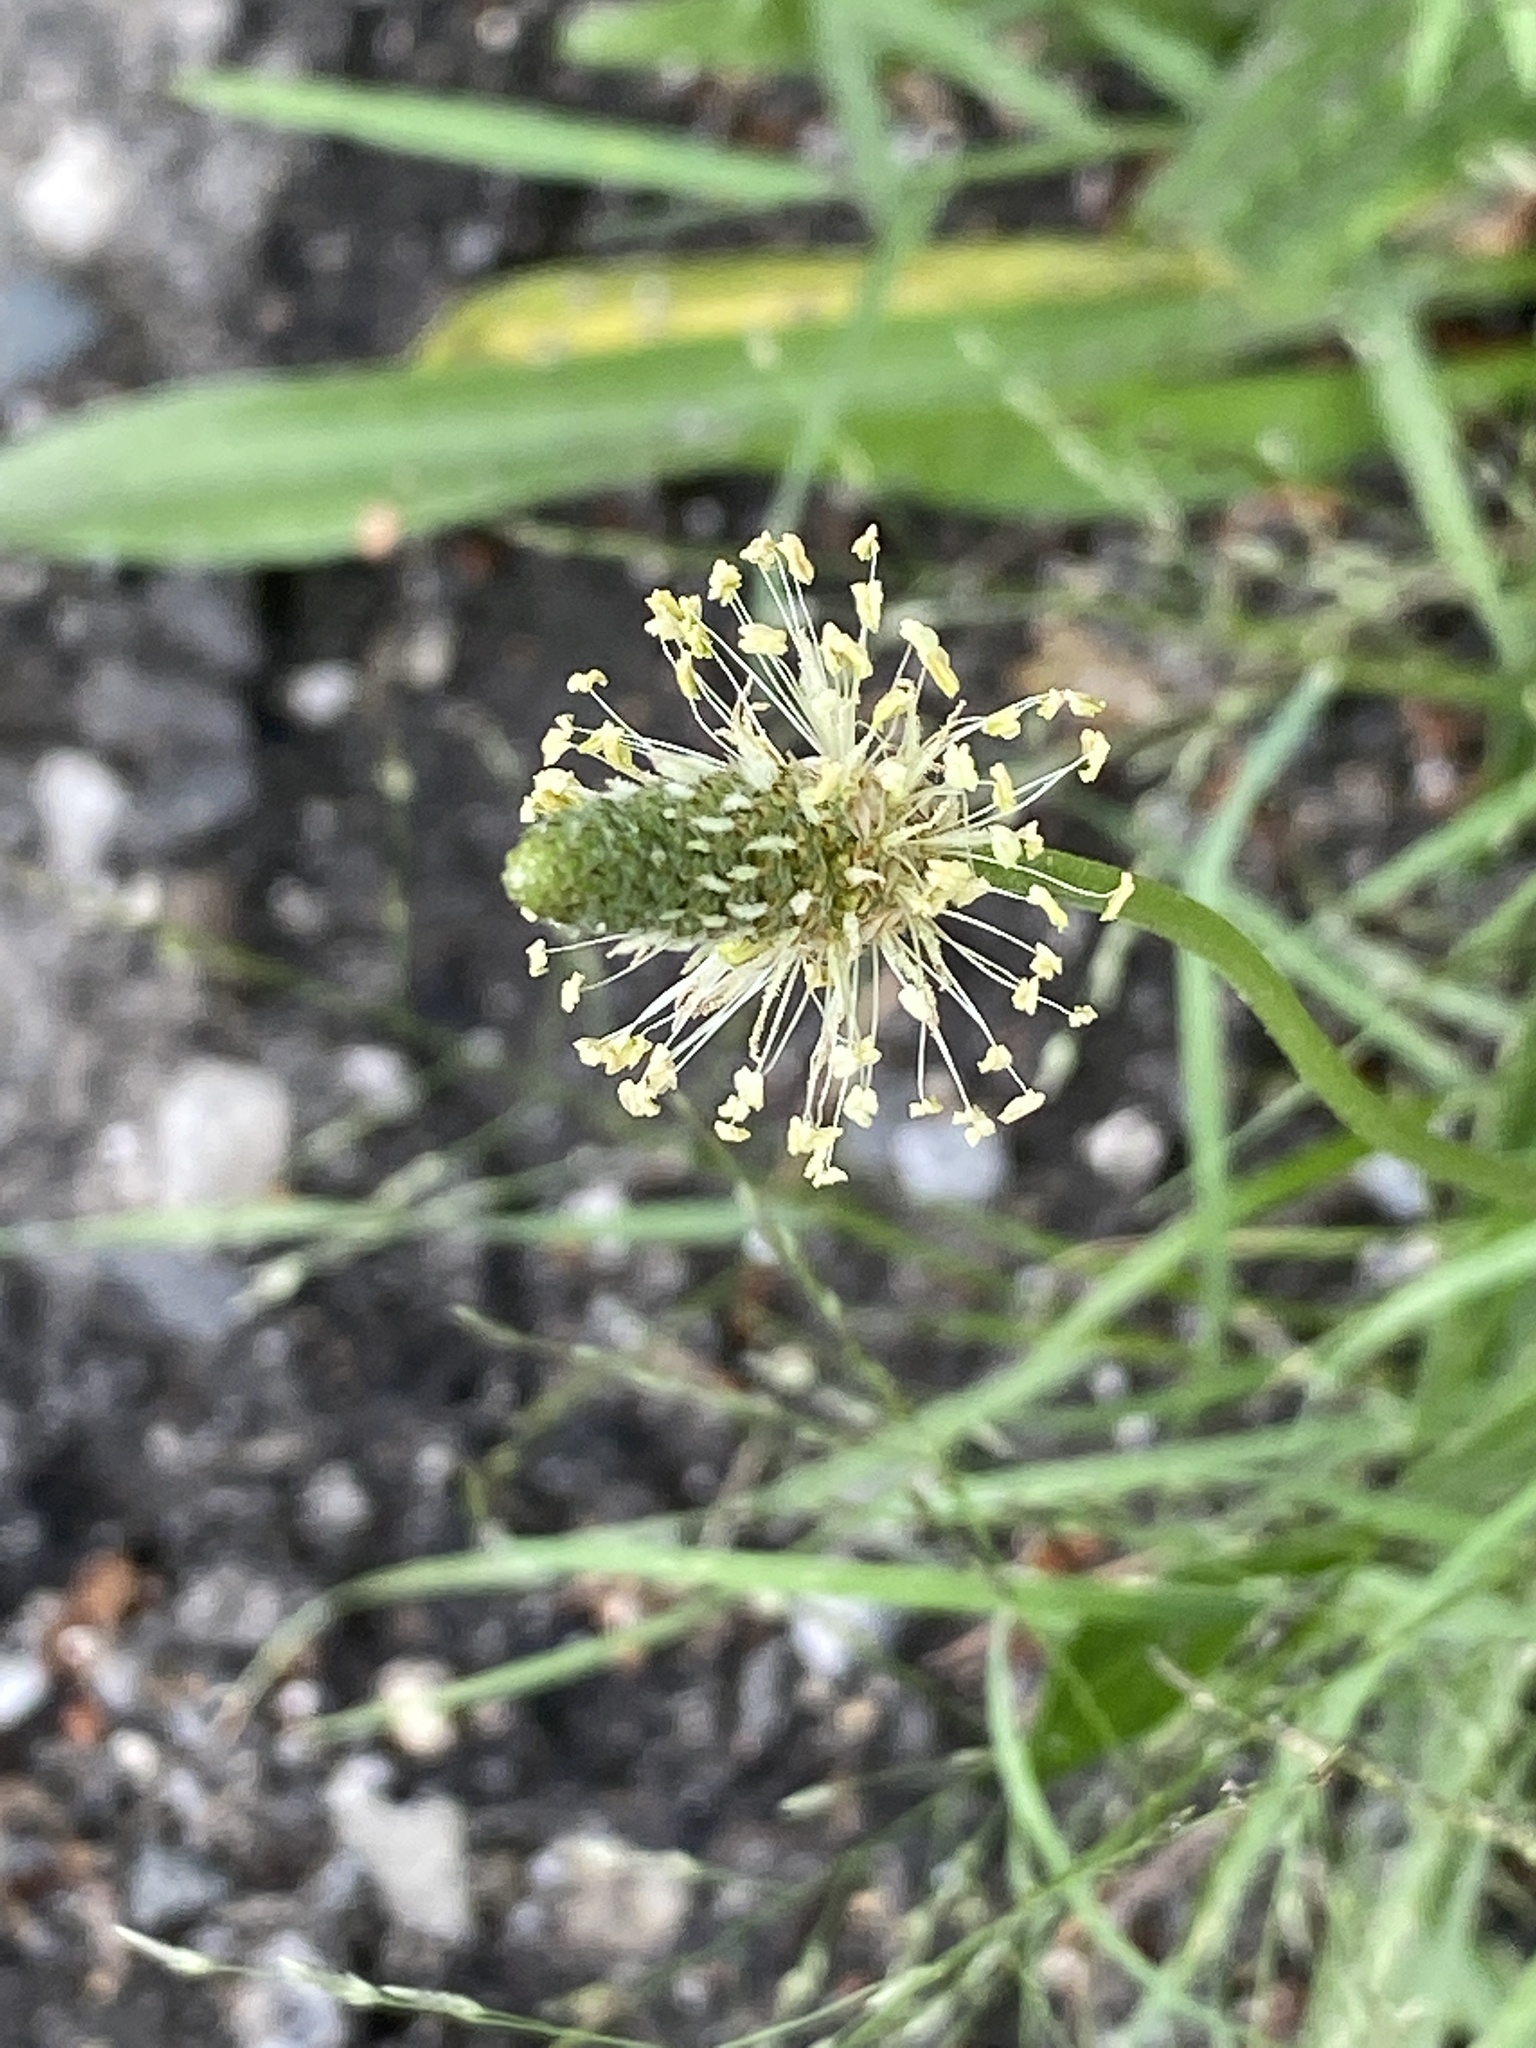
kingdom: Plantae
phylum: Tracheophyta
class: Magnoliopsida
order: Lamiales
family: Plantaginaceae
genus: Plantago
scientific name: Plantago lanceolata
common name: Ribwort plantain
